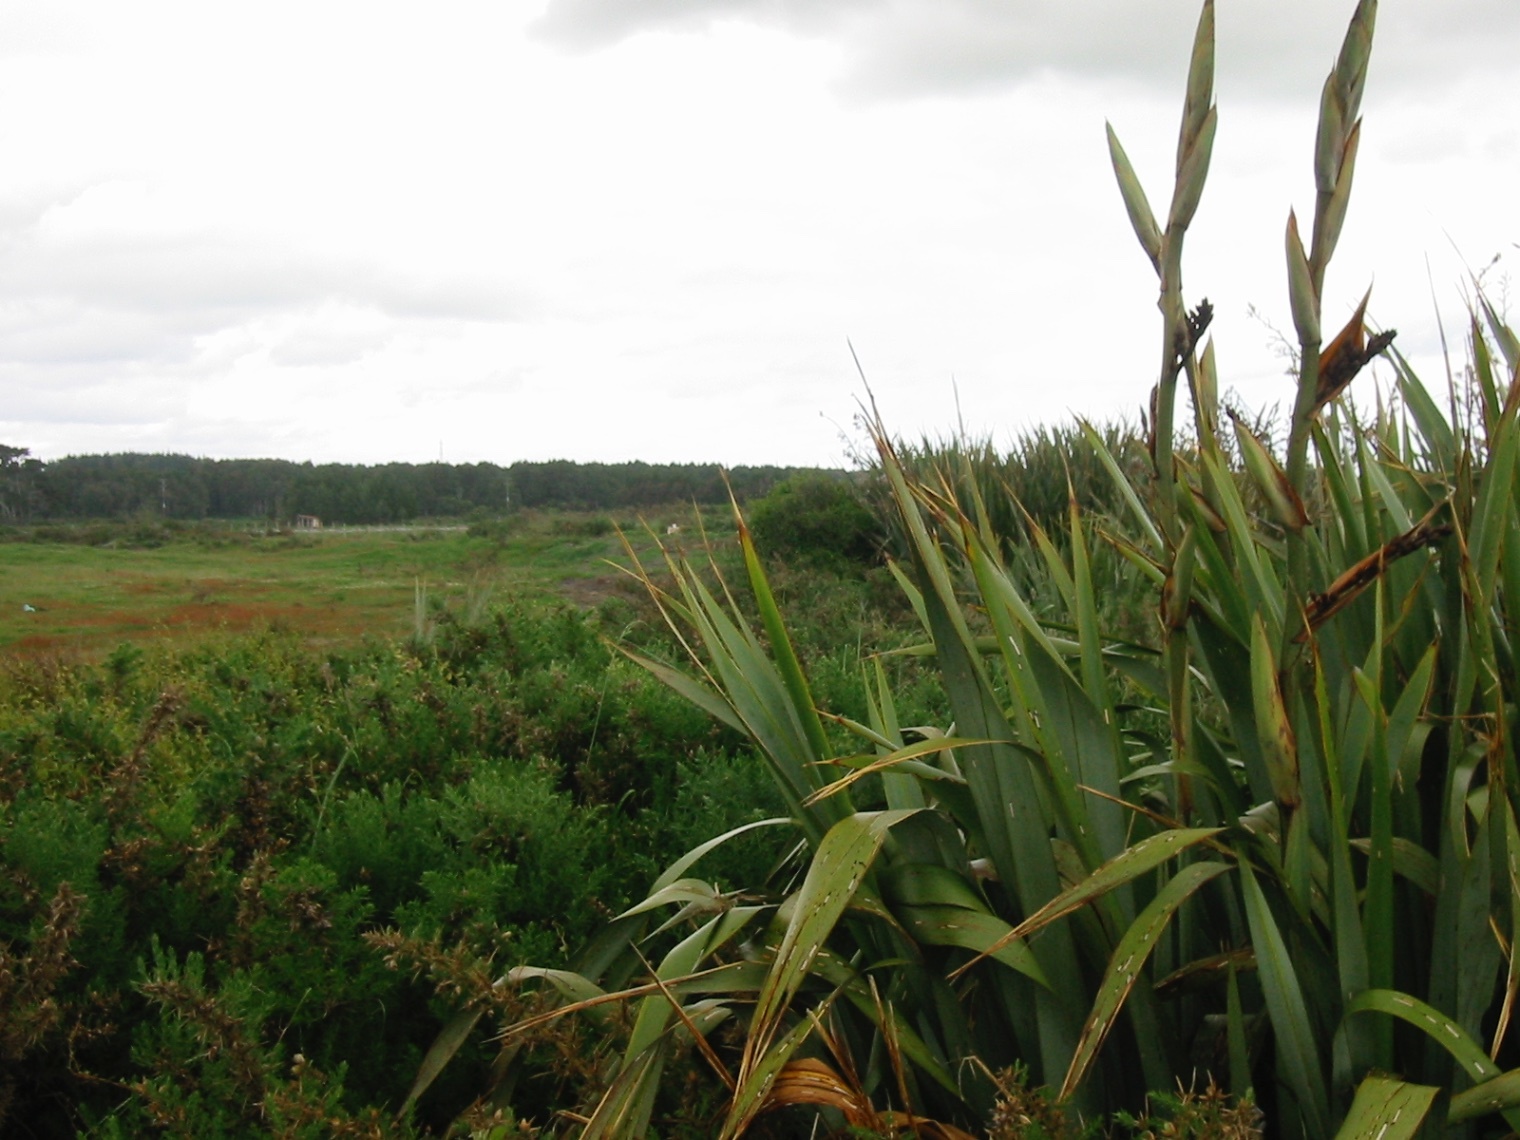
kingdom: Plantae
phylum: Tracheophyta
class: Liliopsida
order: Asparagales
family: Asphodelaceae
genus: Phormium
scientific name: Phormium tenax
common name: New zealand flax
